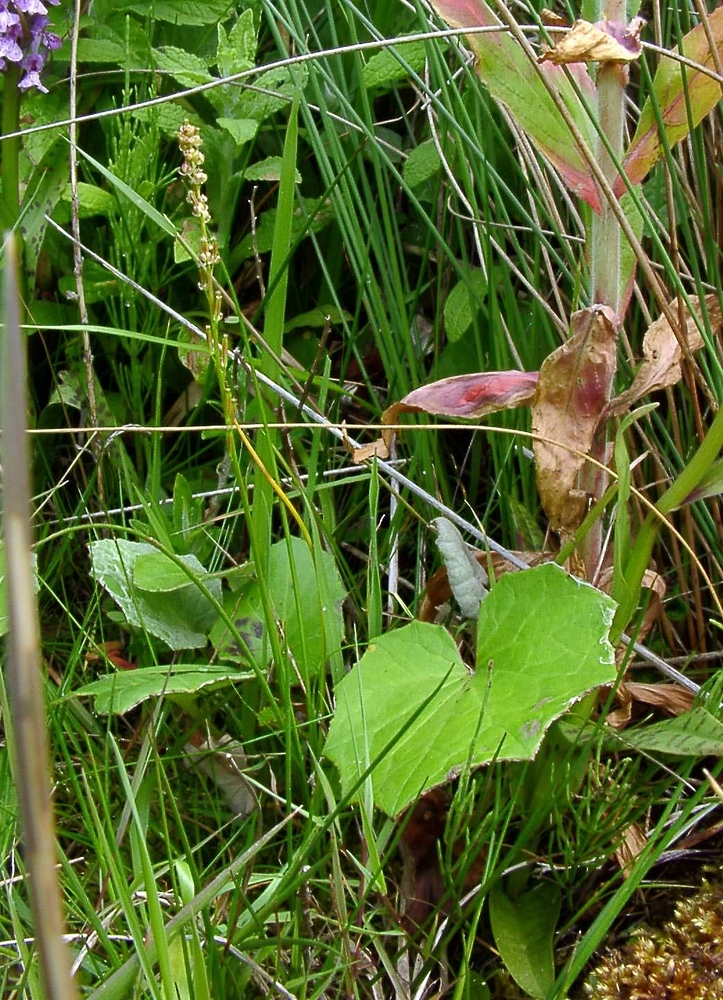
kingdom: Plantae
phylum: Tracheophyta
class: Liliopsida
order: Alismatales
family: Juncaginaceae
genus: Triglochin
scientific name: Triglochin palustris
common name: Marsh arrowgrass
